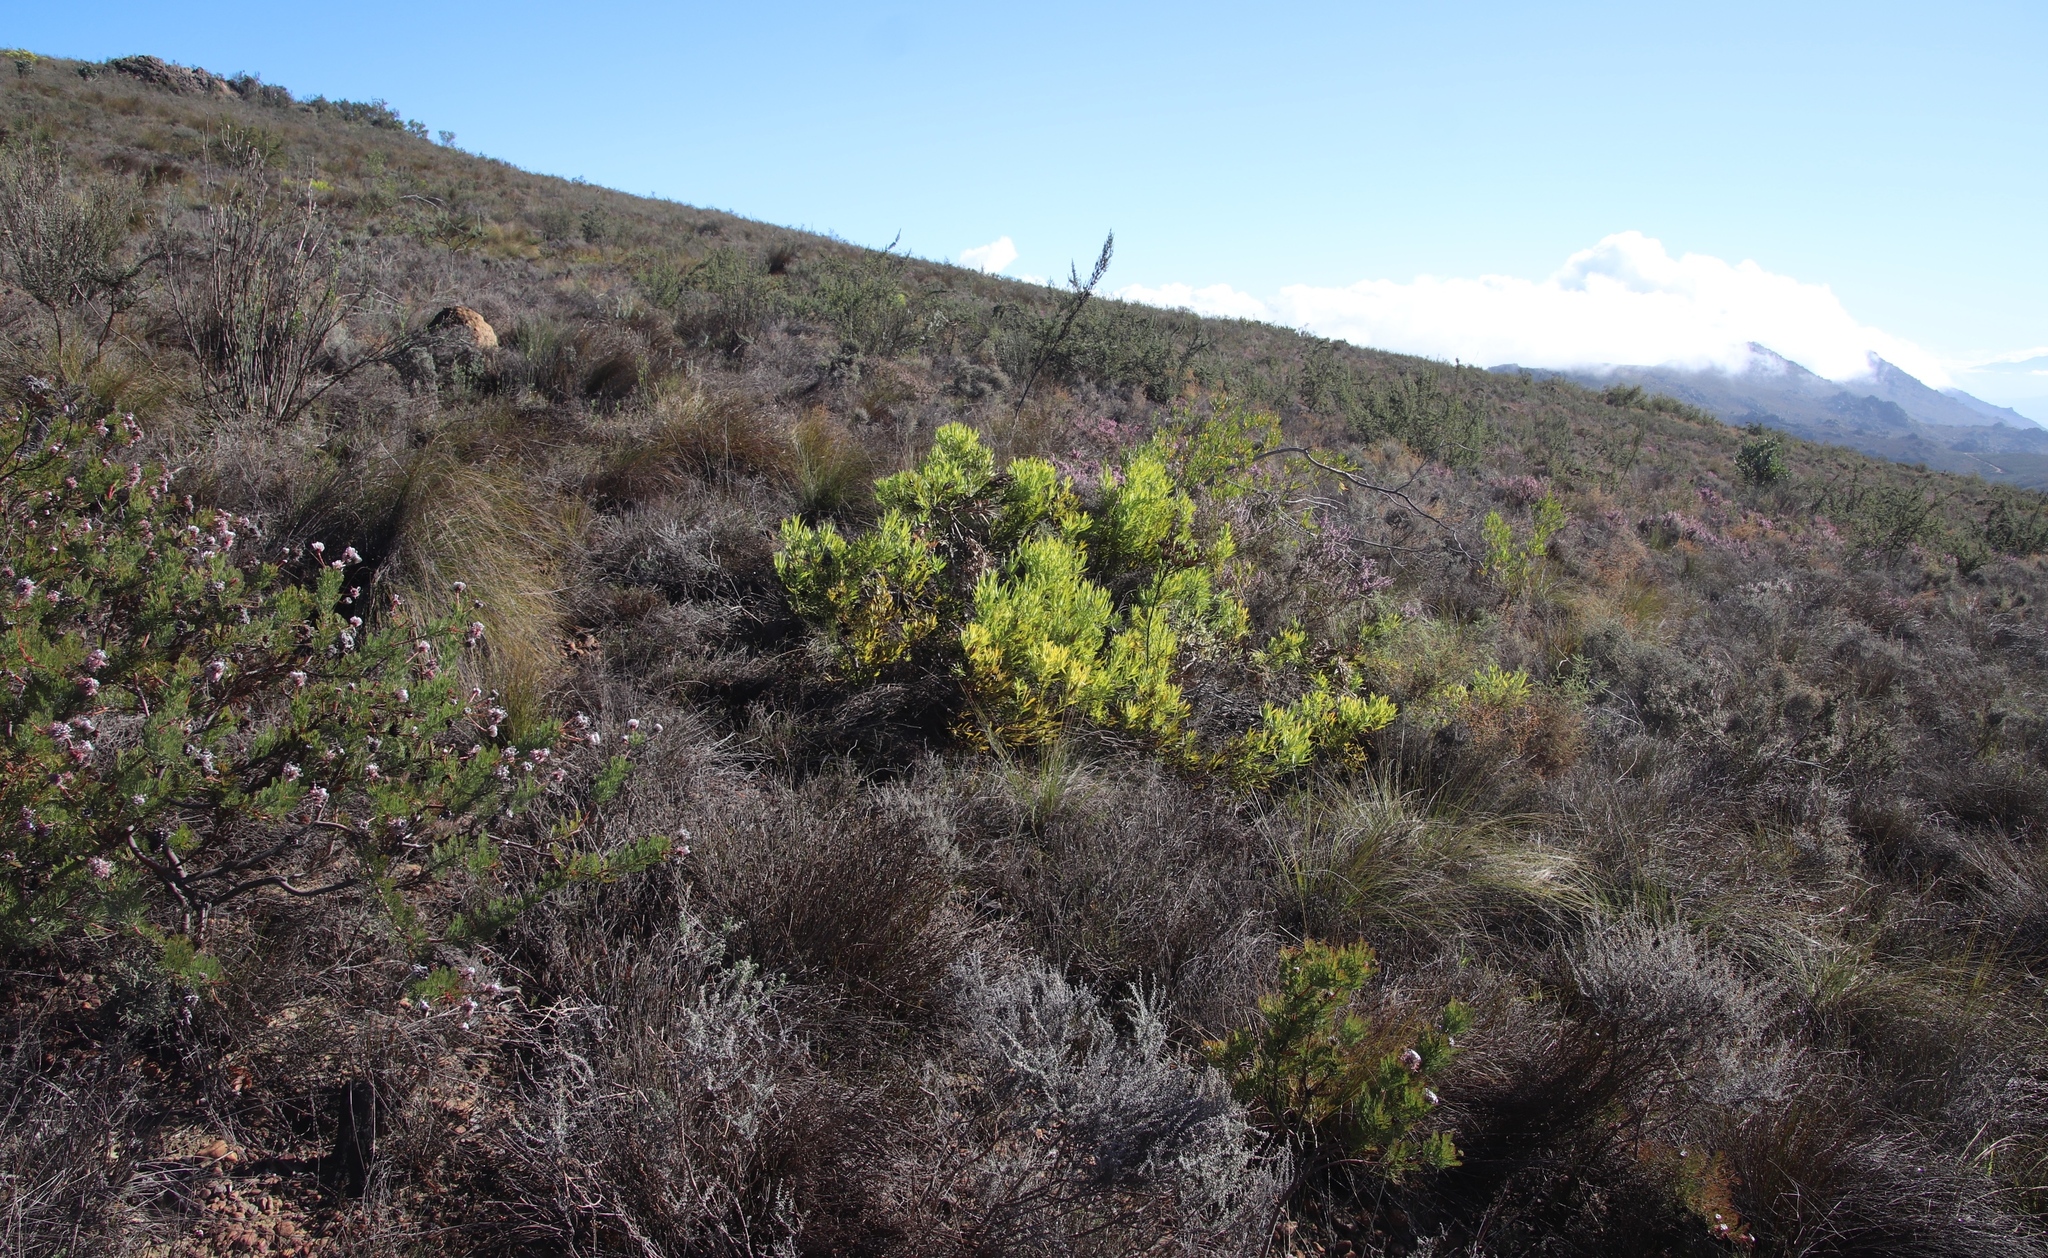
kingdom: Plantae
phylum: Tracheophyta
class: Magnoliopsida
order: Proteales
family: Proteaceae
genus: Leucadendron
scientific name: Leucadendron salignum
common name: Common sunshine conebush
